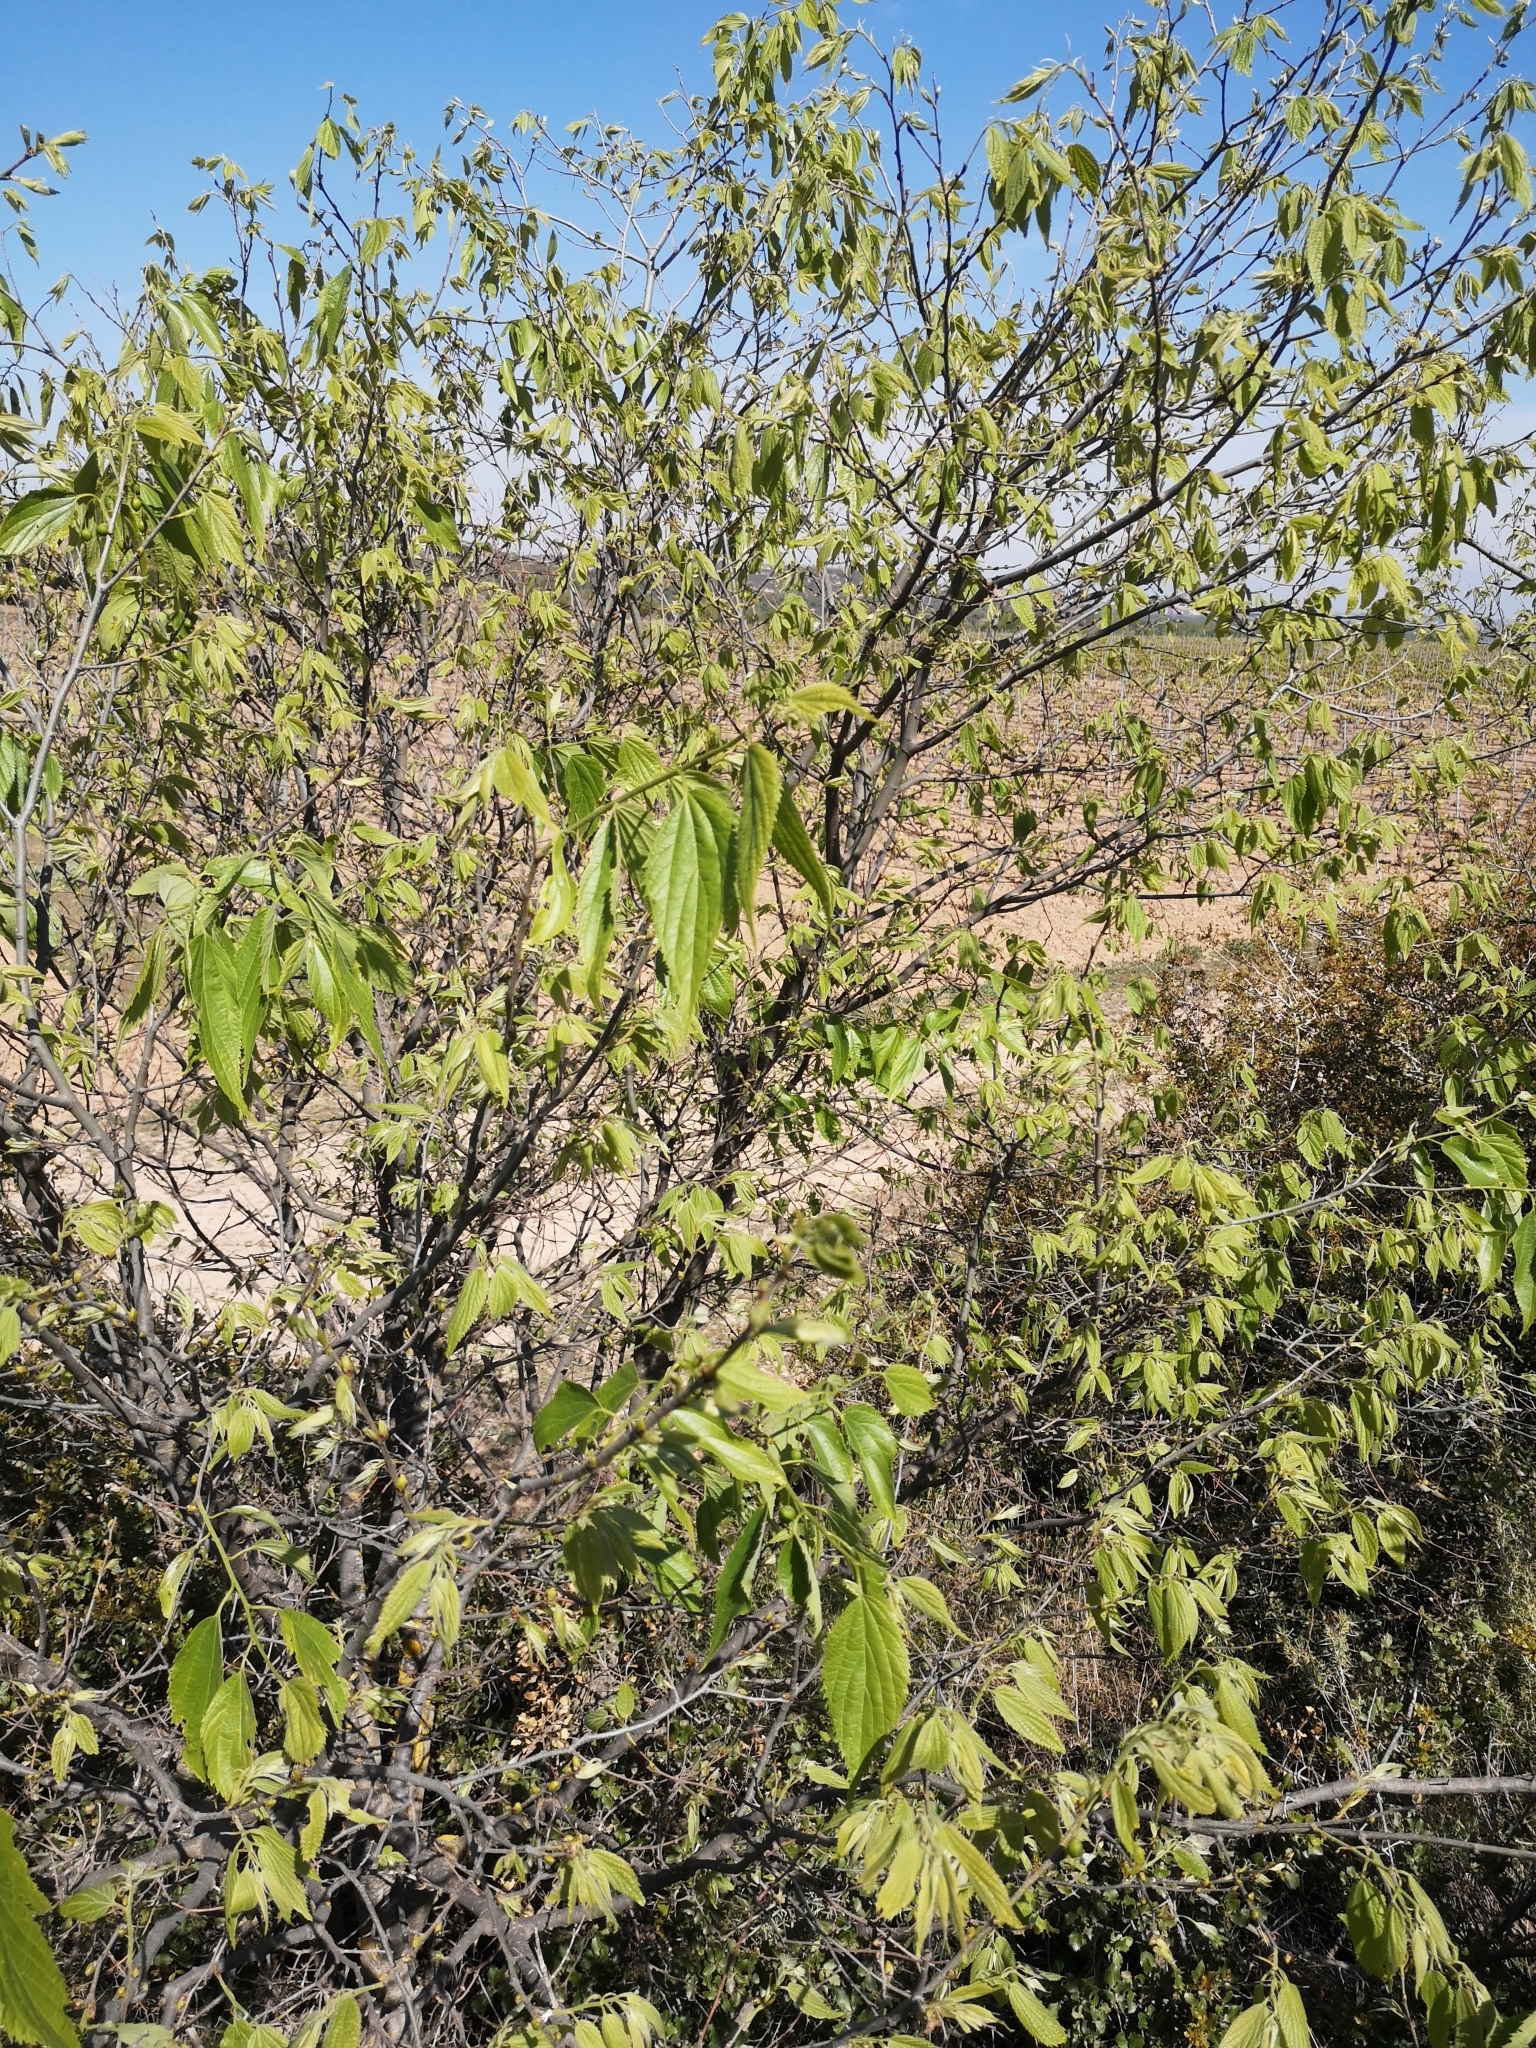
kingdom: Plantae
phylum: Tracheophyta
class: Magnoliopsida
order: Rosales
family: Cannabaceae
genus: Celtis
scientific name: Celtis australis
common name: European hackberry
